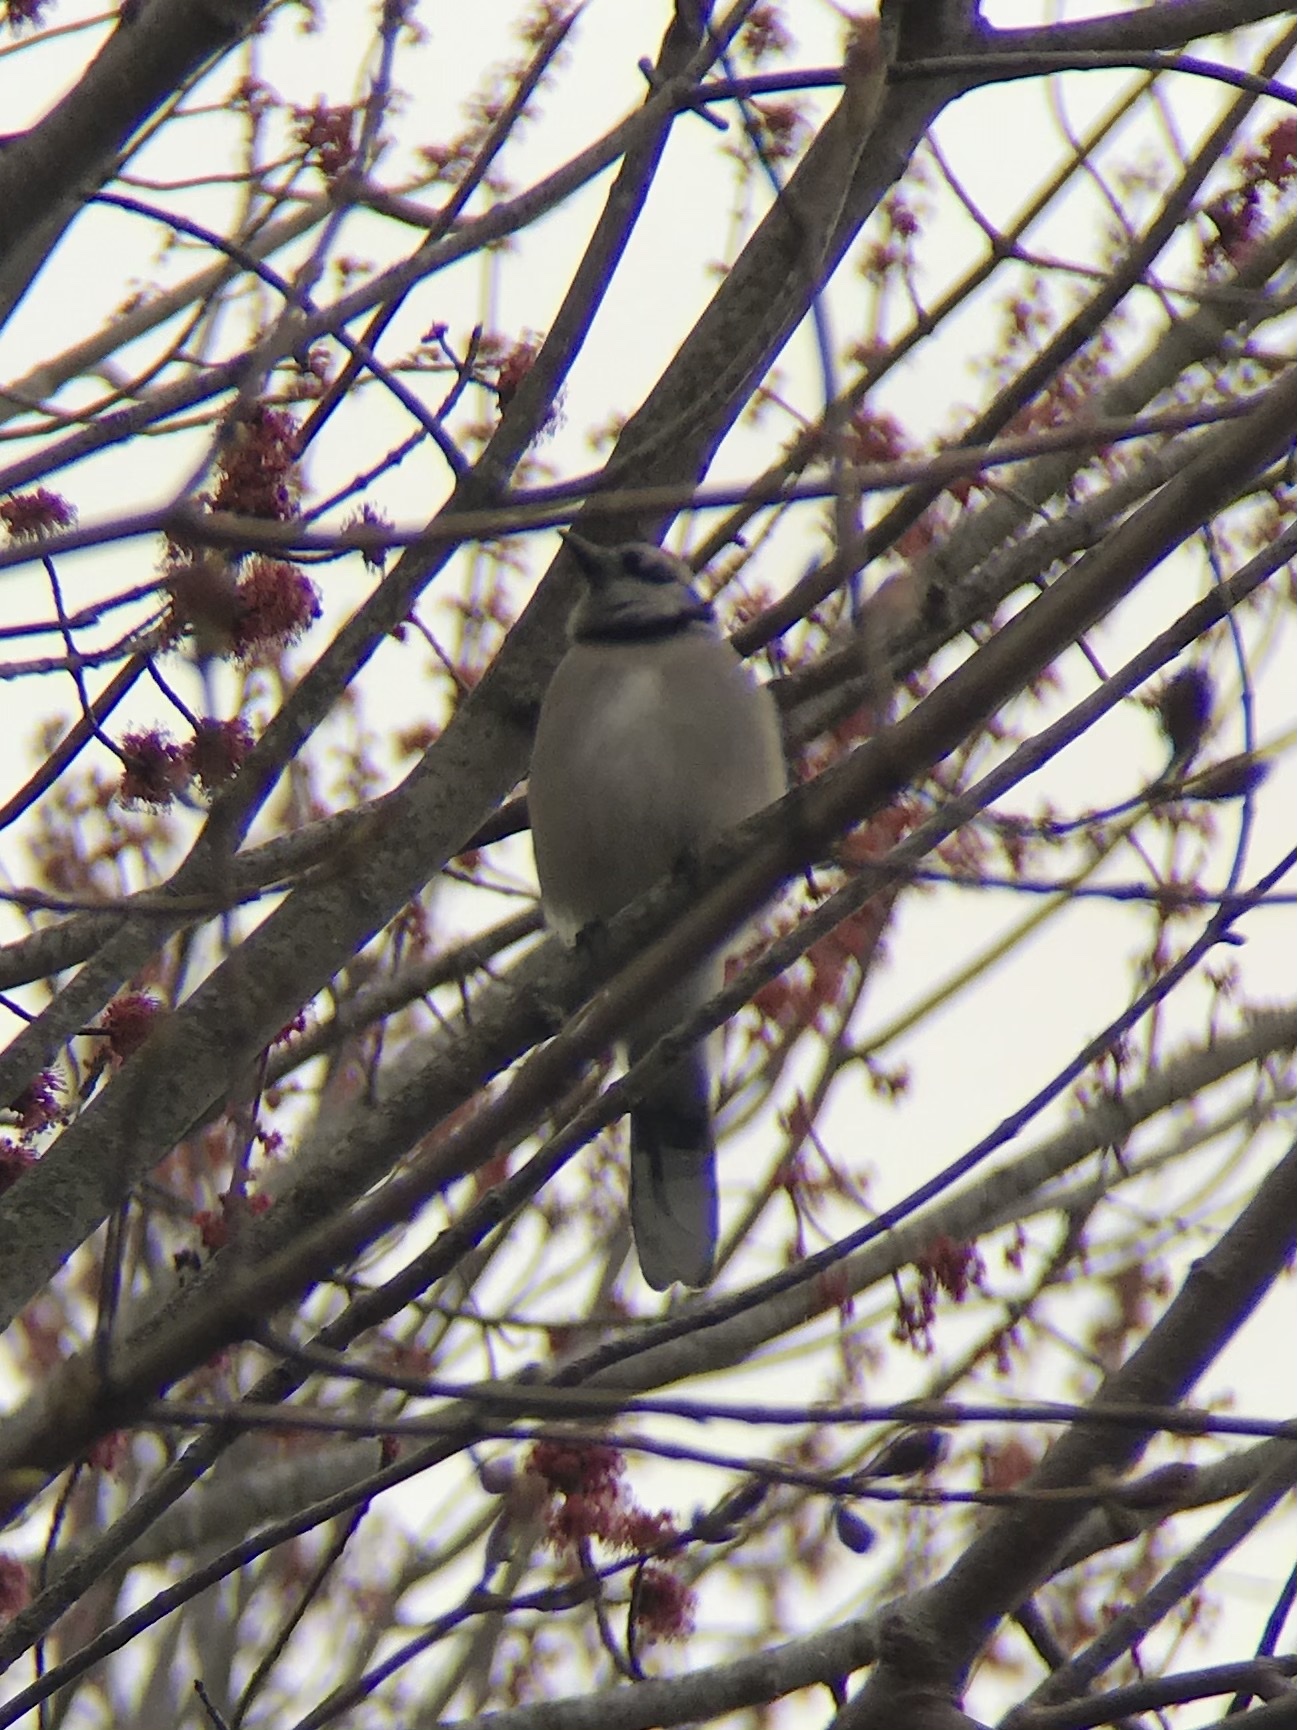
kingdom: Animalia
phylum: Chordata
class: Aves
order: Passeriformes
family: Corvidae
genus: Cyanocitta
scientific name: Cyanocitta cristata
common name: Blue jay
